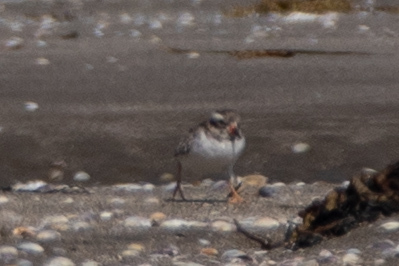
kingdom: Animalia
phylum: Chordata
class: Aves
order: Charadriiformes
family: Charadriidae
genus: Thinornis
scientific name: Thinornis novaeseelandiae
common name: Shore dotterel
